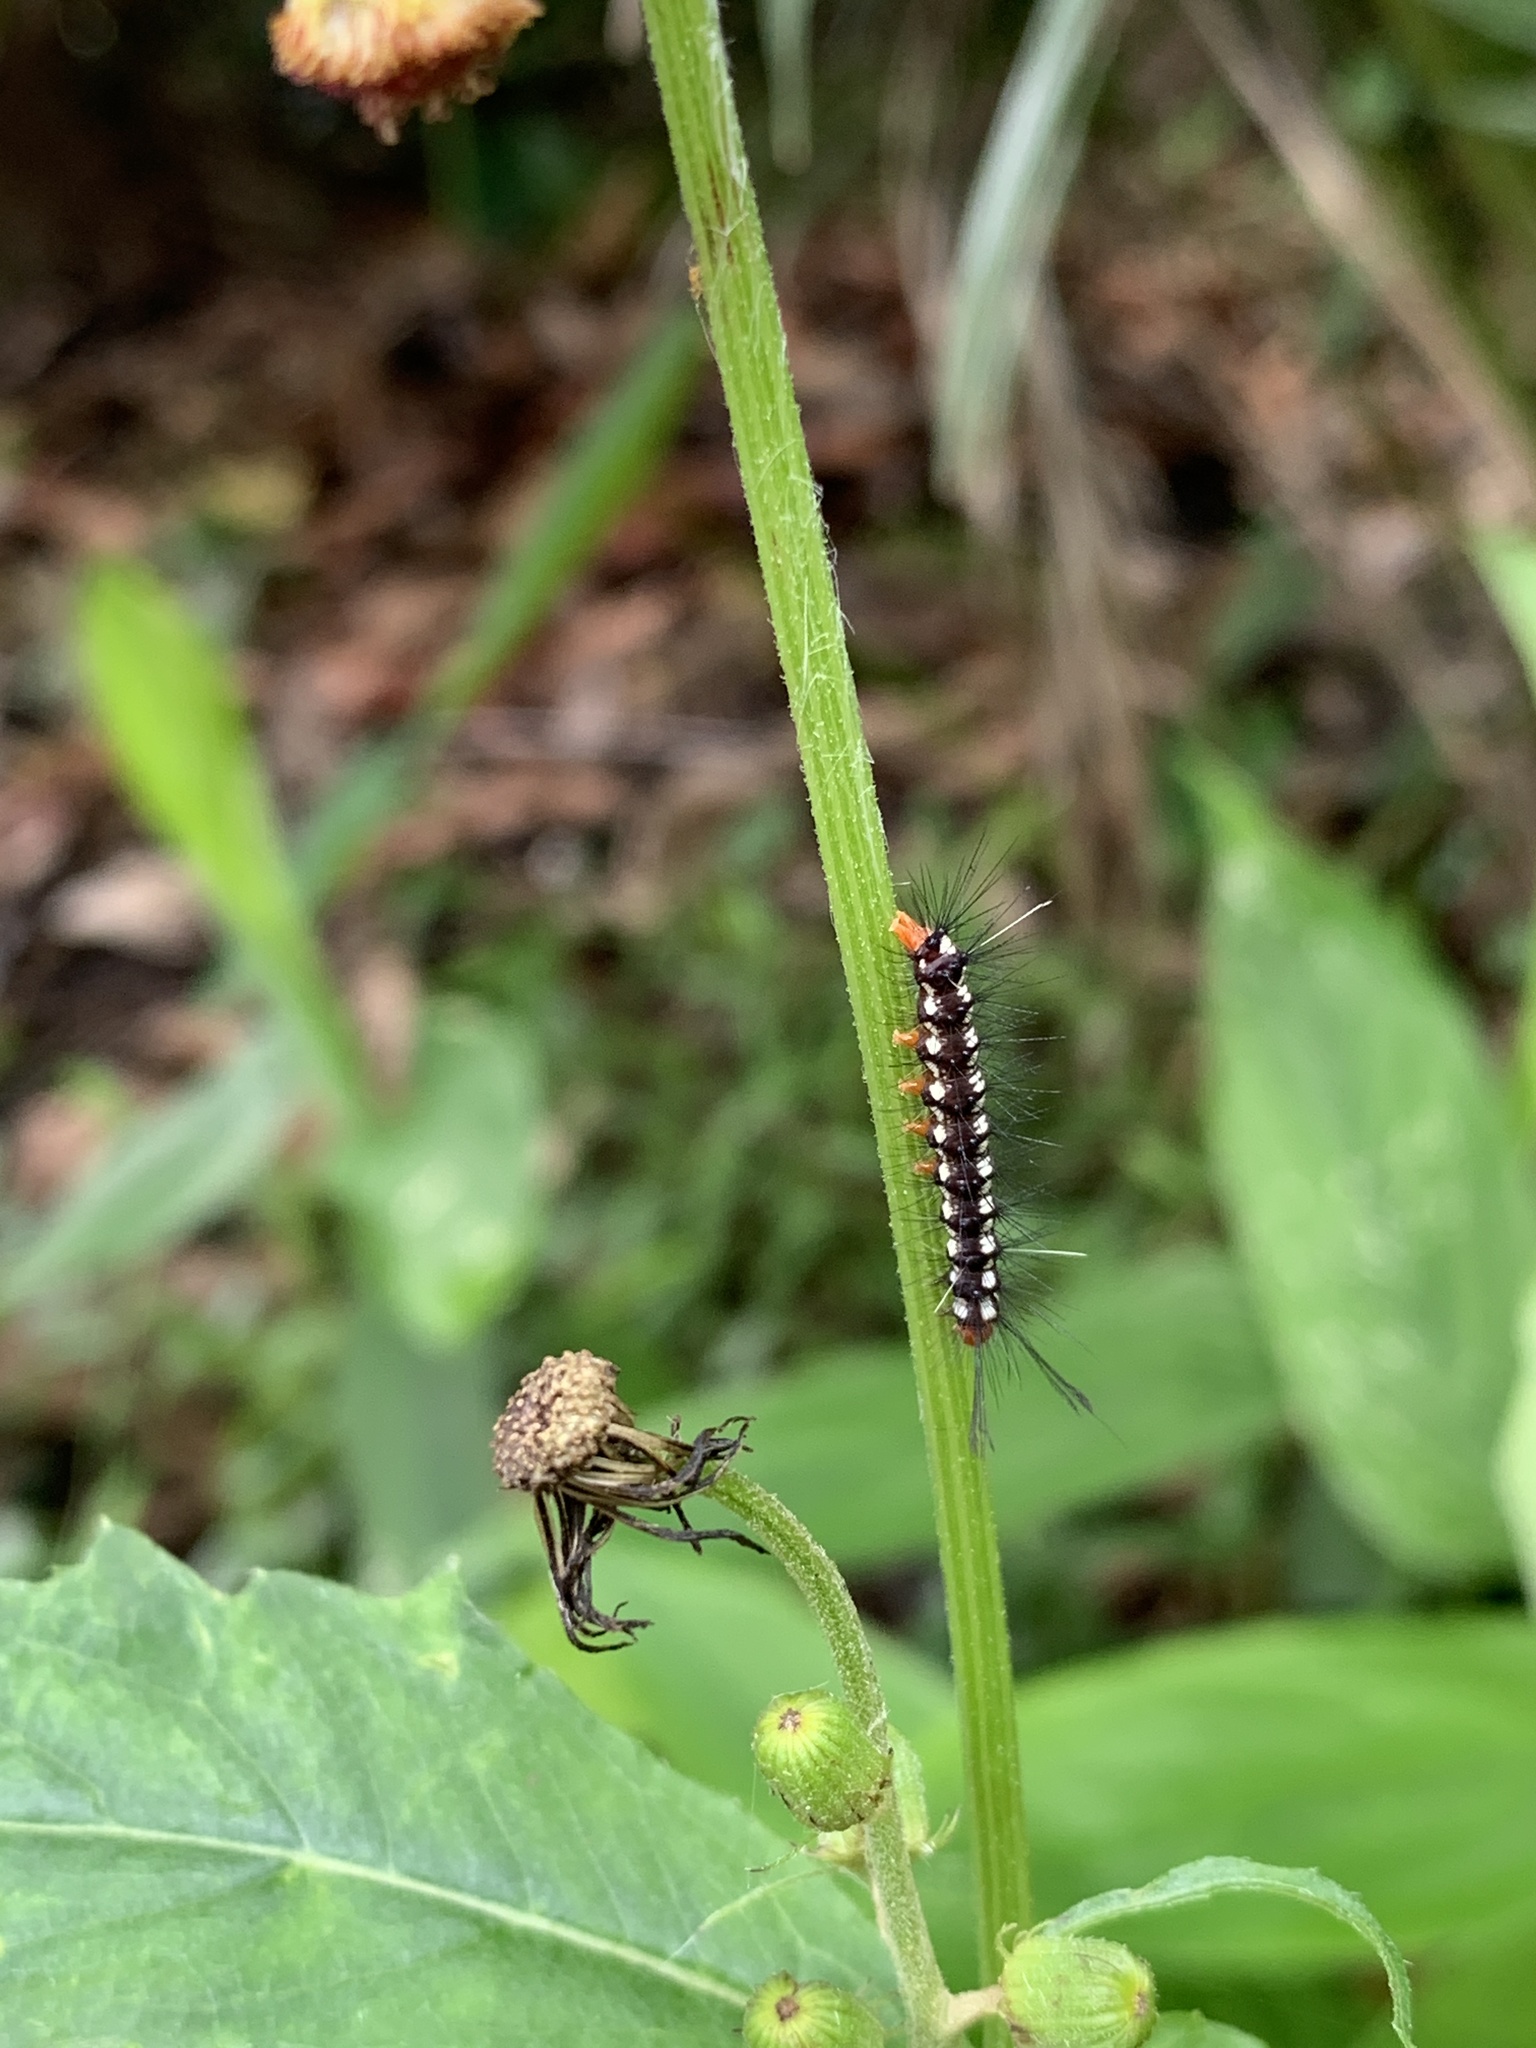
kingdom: Animalia
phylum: Arthropoda
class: Insecta
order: Lepidoptera
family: Erebidae
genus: Nyctemera
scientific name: Nyctemera adversata
